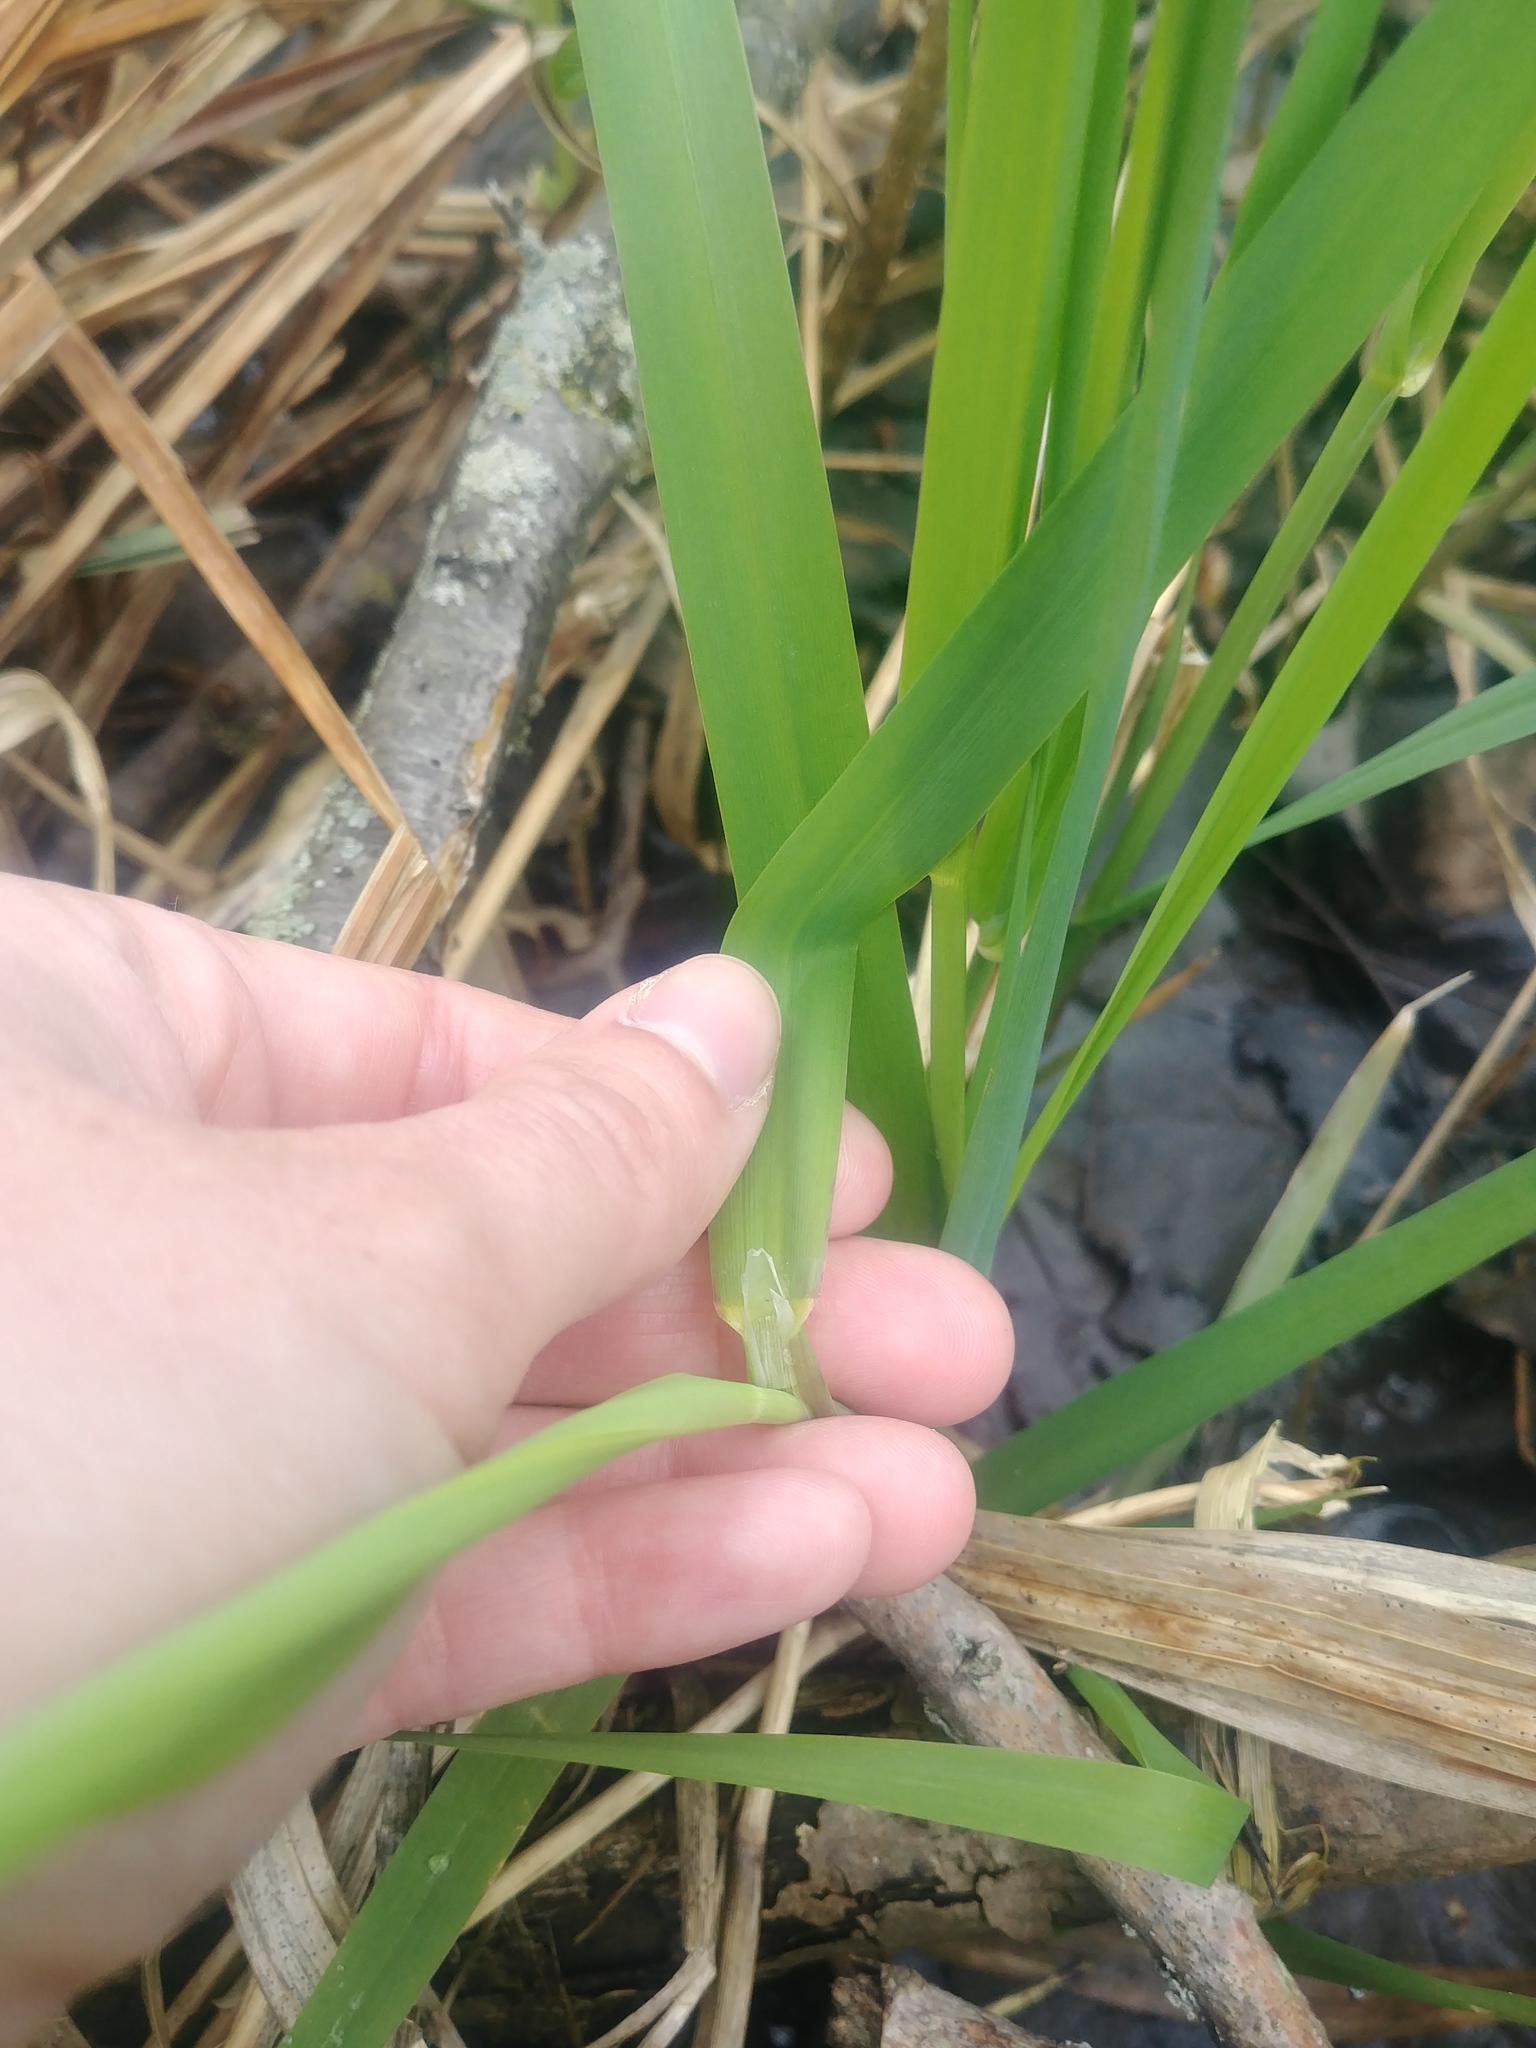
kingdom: Plantae
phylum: Tracheophyta
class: Liliopsida
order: Poales
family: Poaceae
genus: Phalaris
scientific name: Phalaris arundinacea
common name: Reed canary-grass
